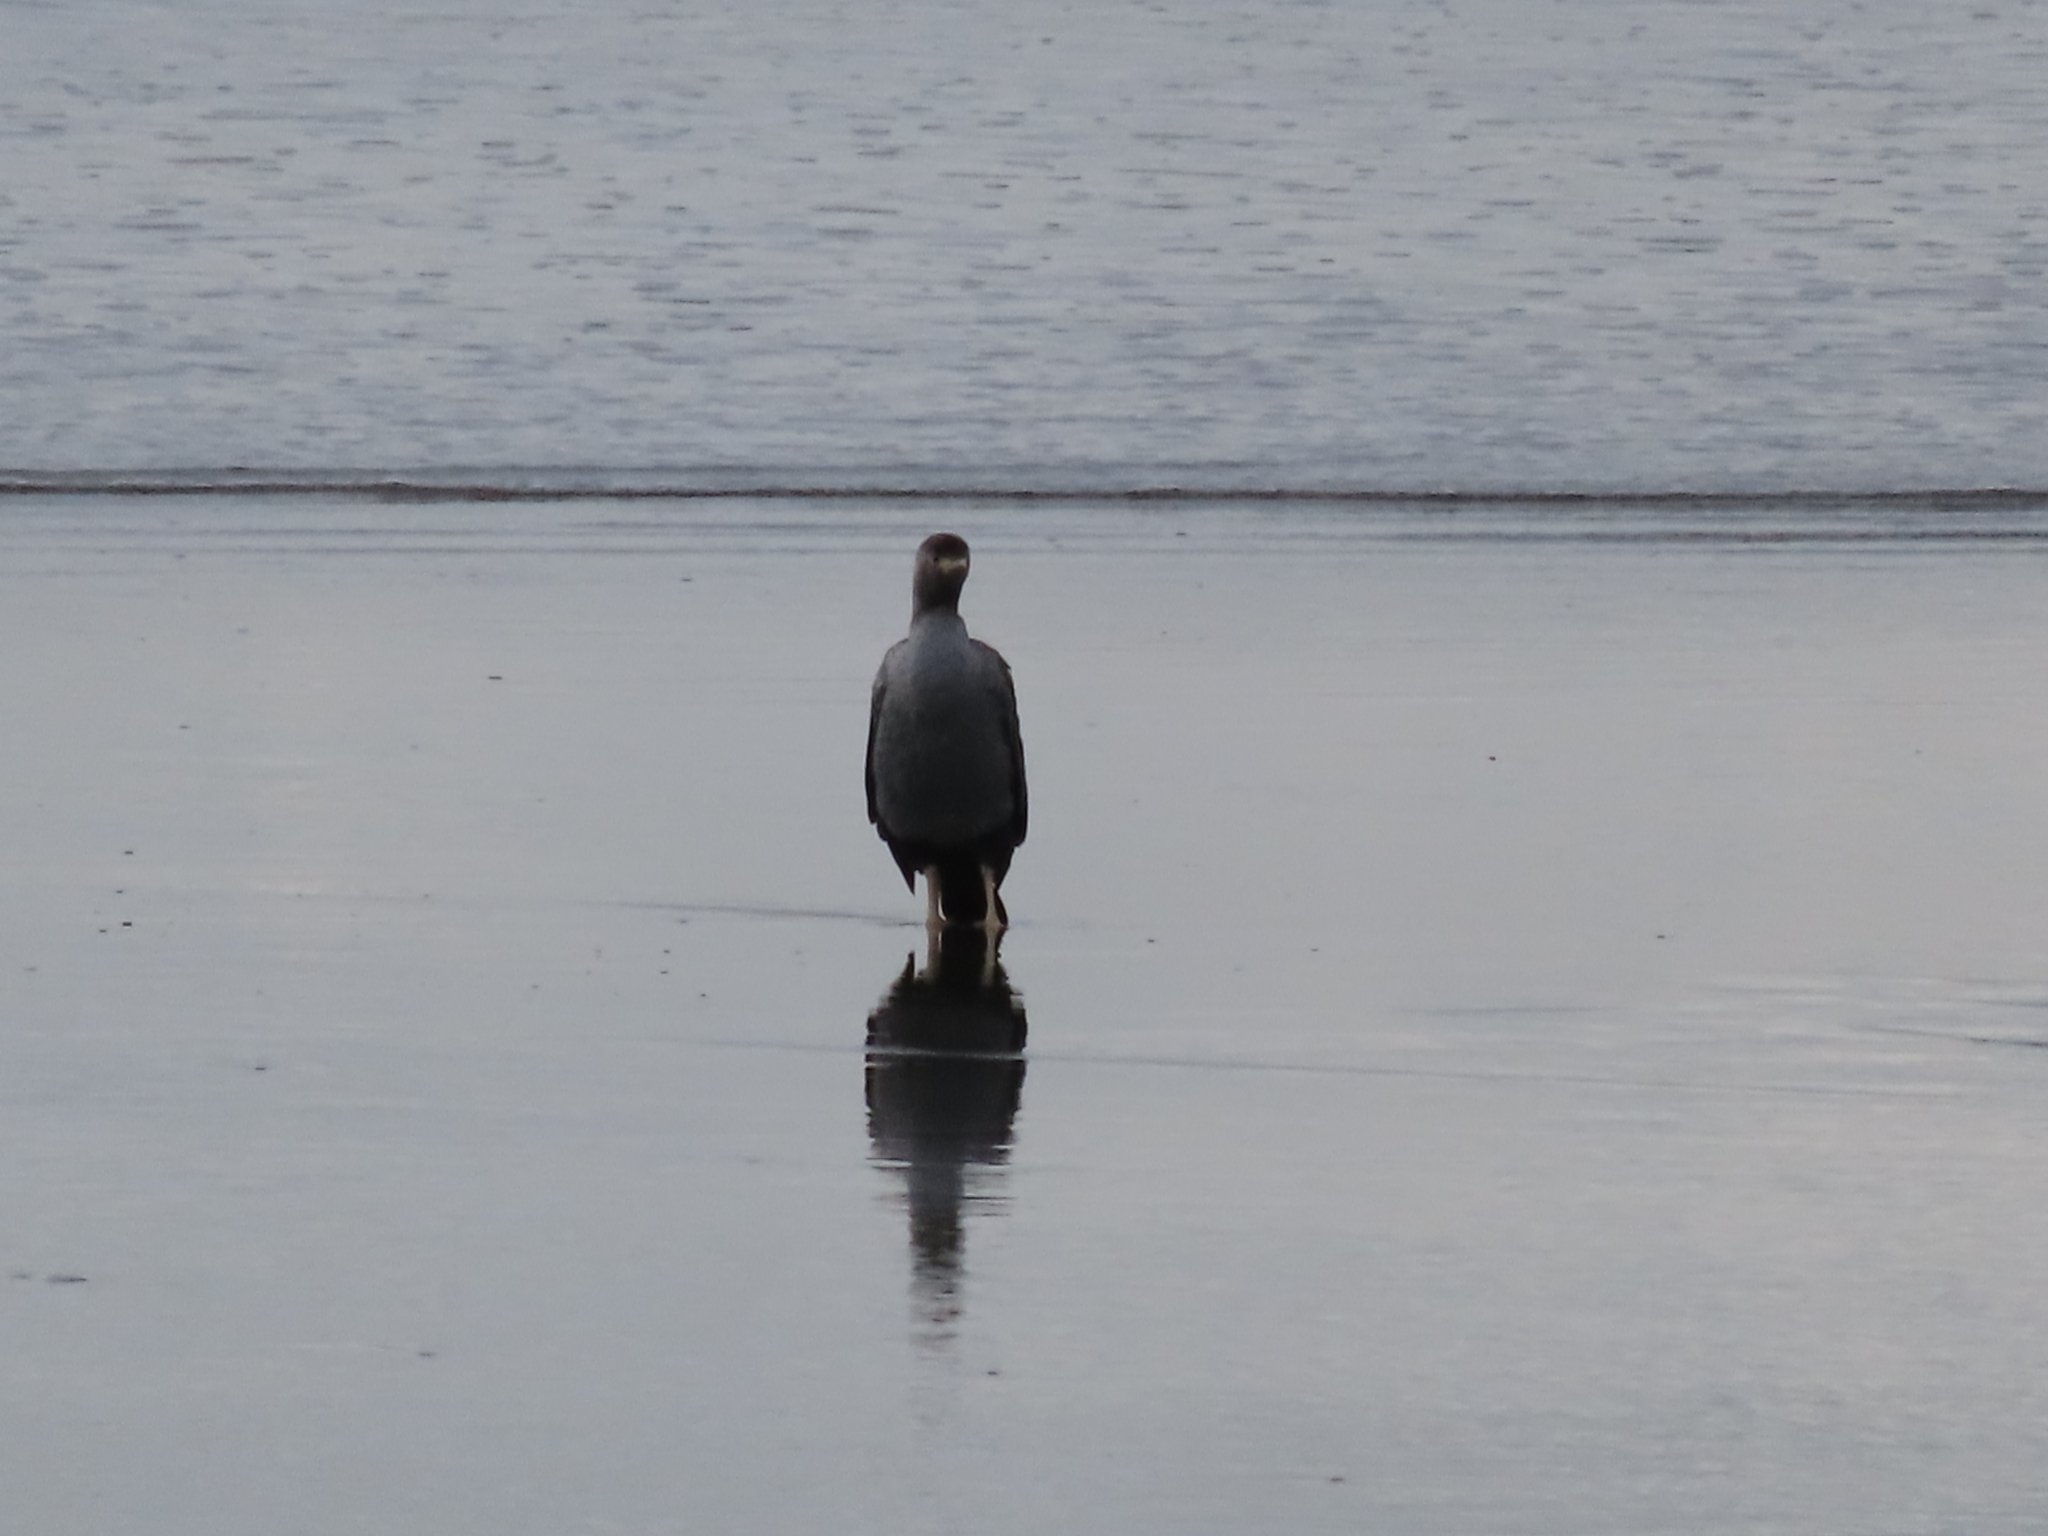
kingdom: Animalia
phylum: Chordata
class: Aves
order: Suliformes
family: Phalacrocoracidae
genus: Phalacrocorax
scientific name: Phalacrocorax punctatus
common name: Spotted shag
